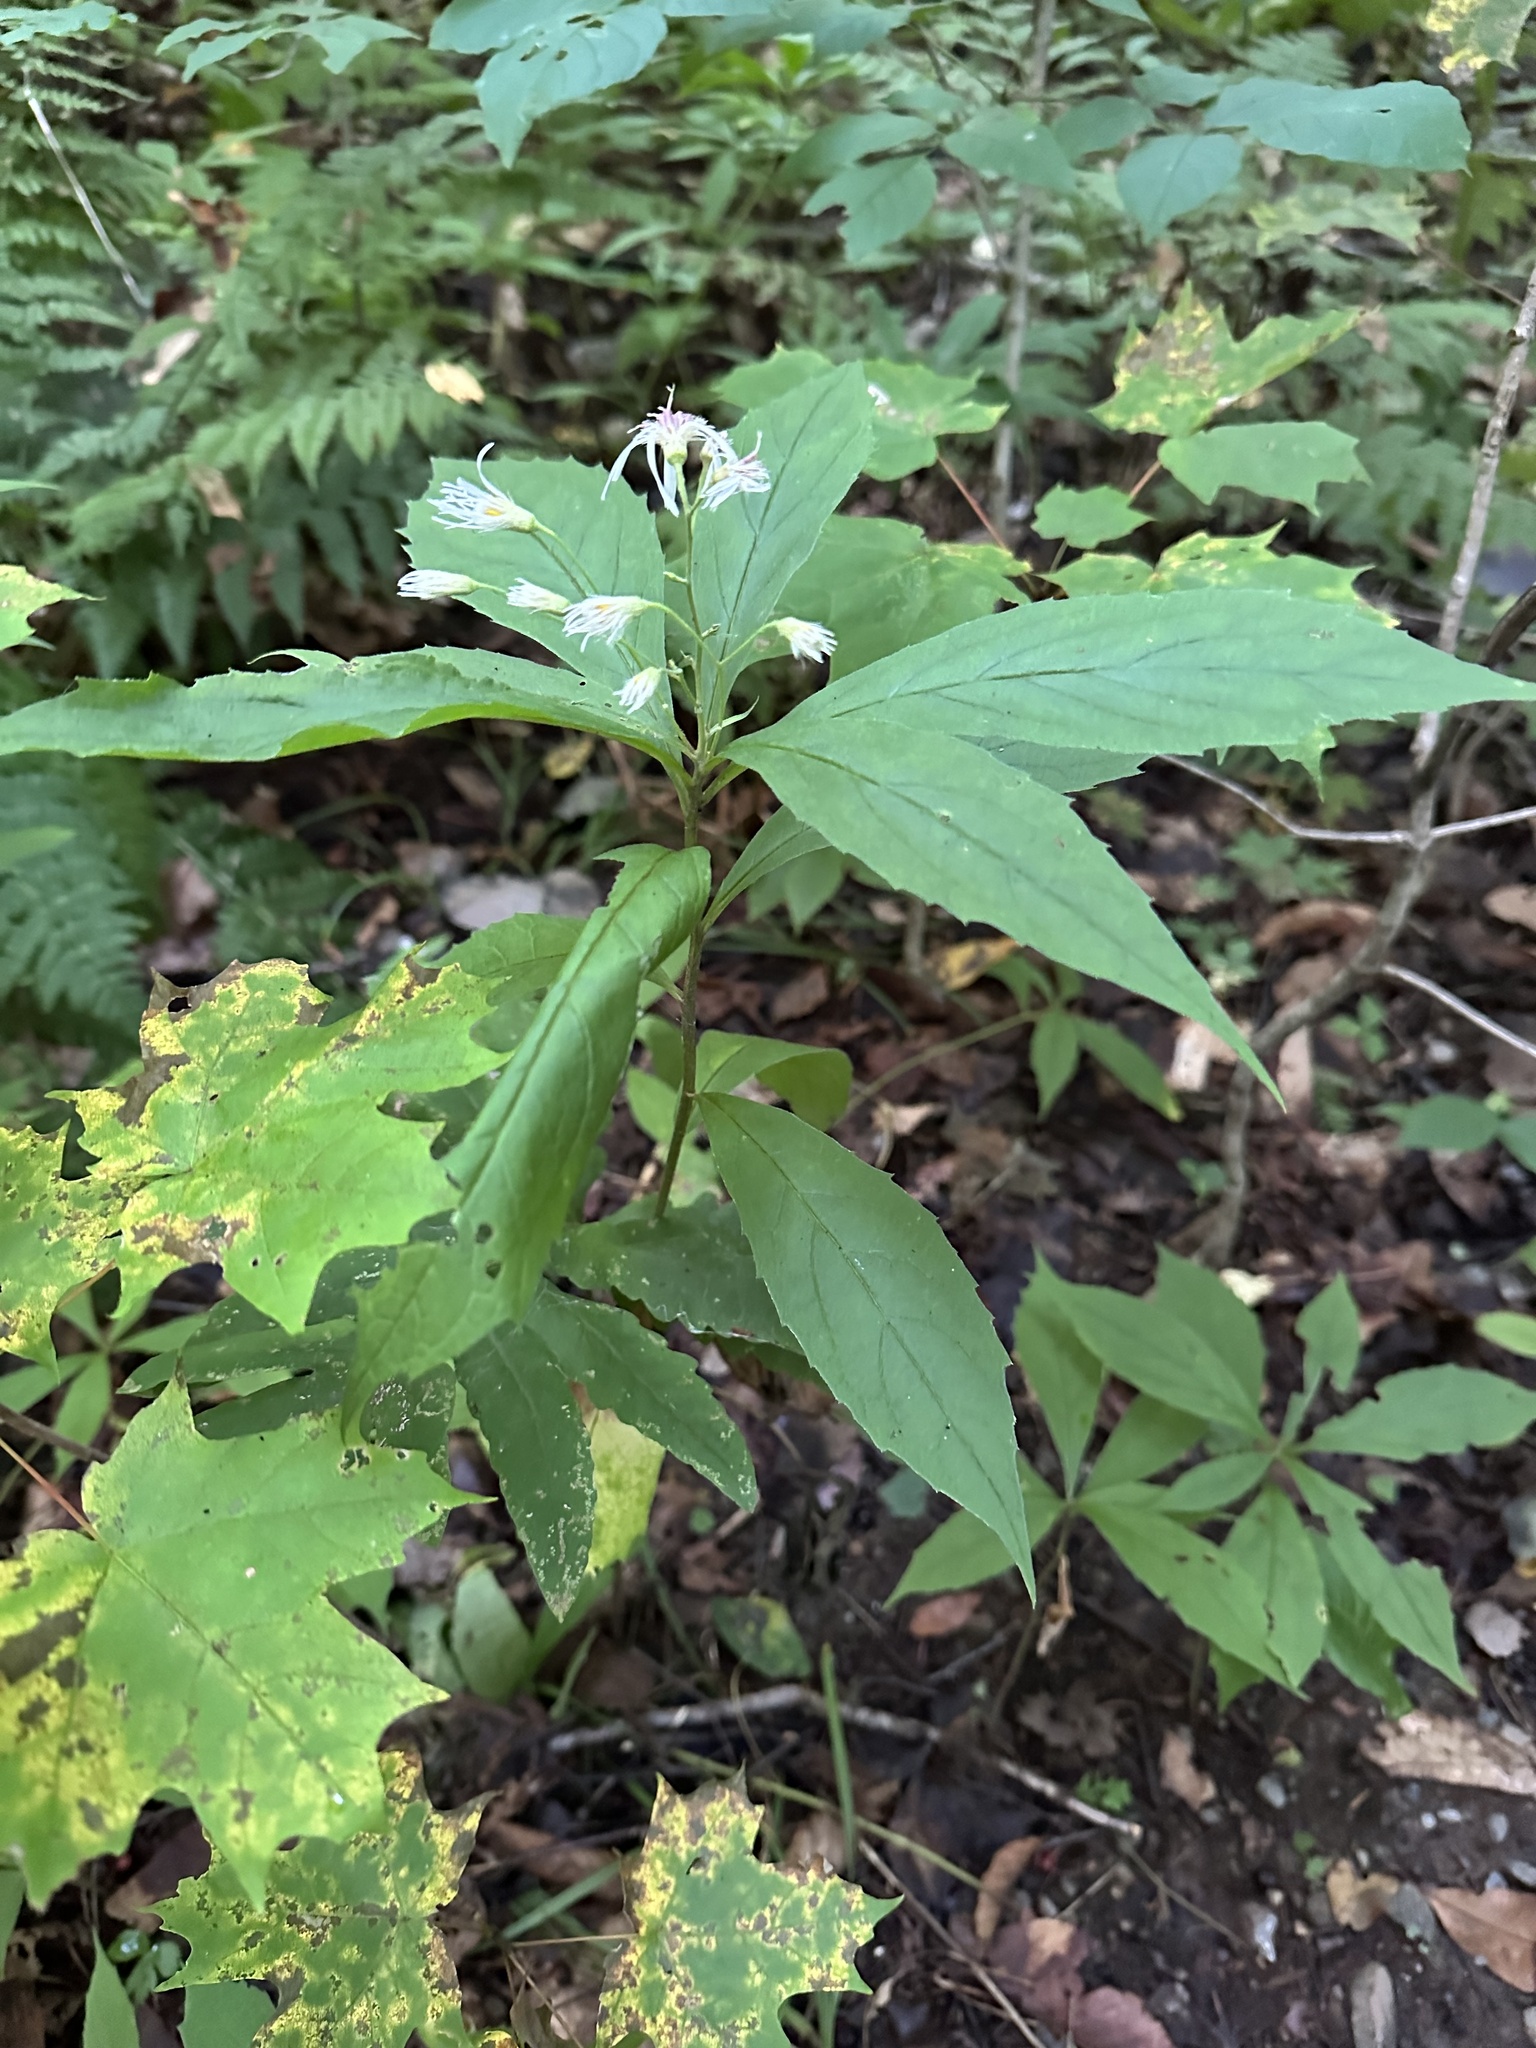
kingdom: Plantae
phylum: Tracheophyta
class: Magnoliopsida
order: Asterales
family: Asteraceae
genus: Oclemena
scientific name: Oclemena acuminata
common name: Mountain aster
